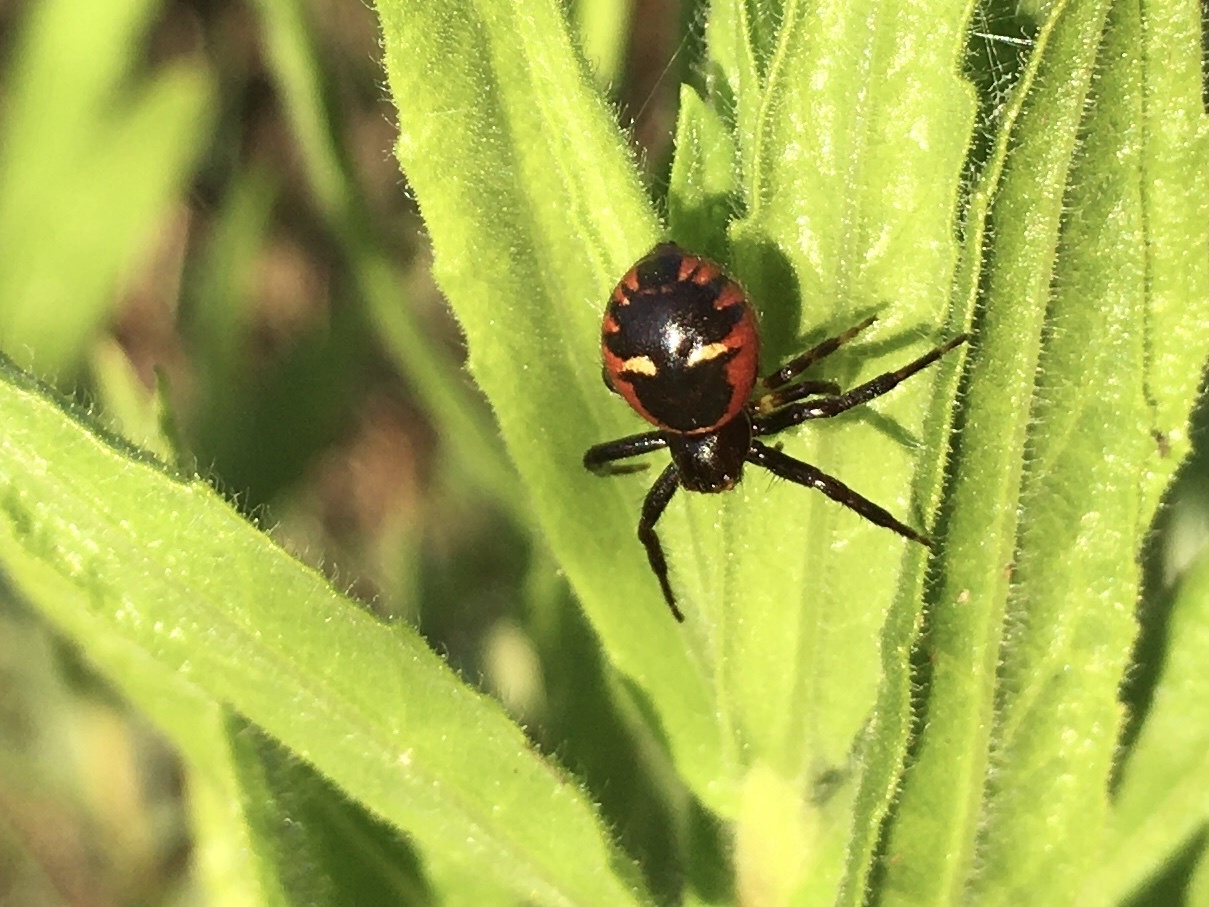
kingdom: Animalia
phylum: Arthropoda
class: Arachnida
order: Araneae
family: Thomisidae
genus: Synema
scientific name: Synema globosum
